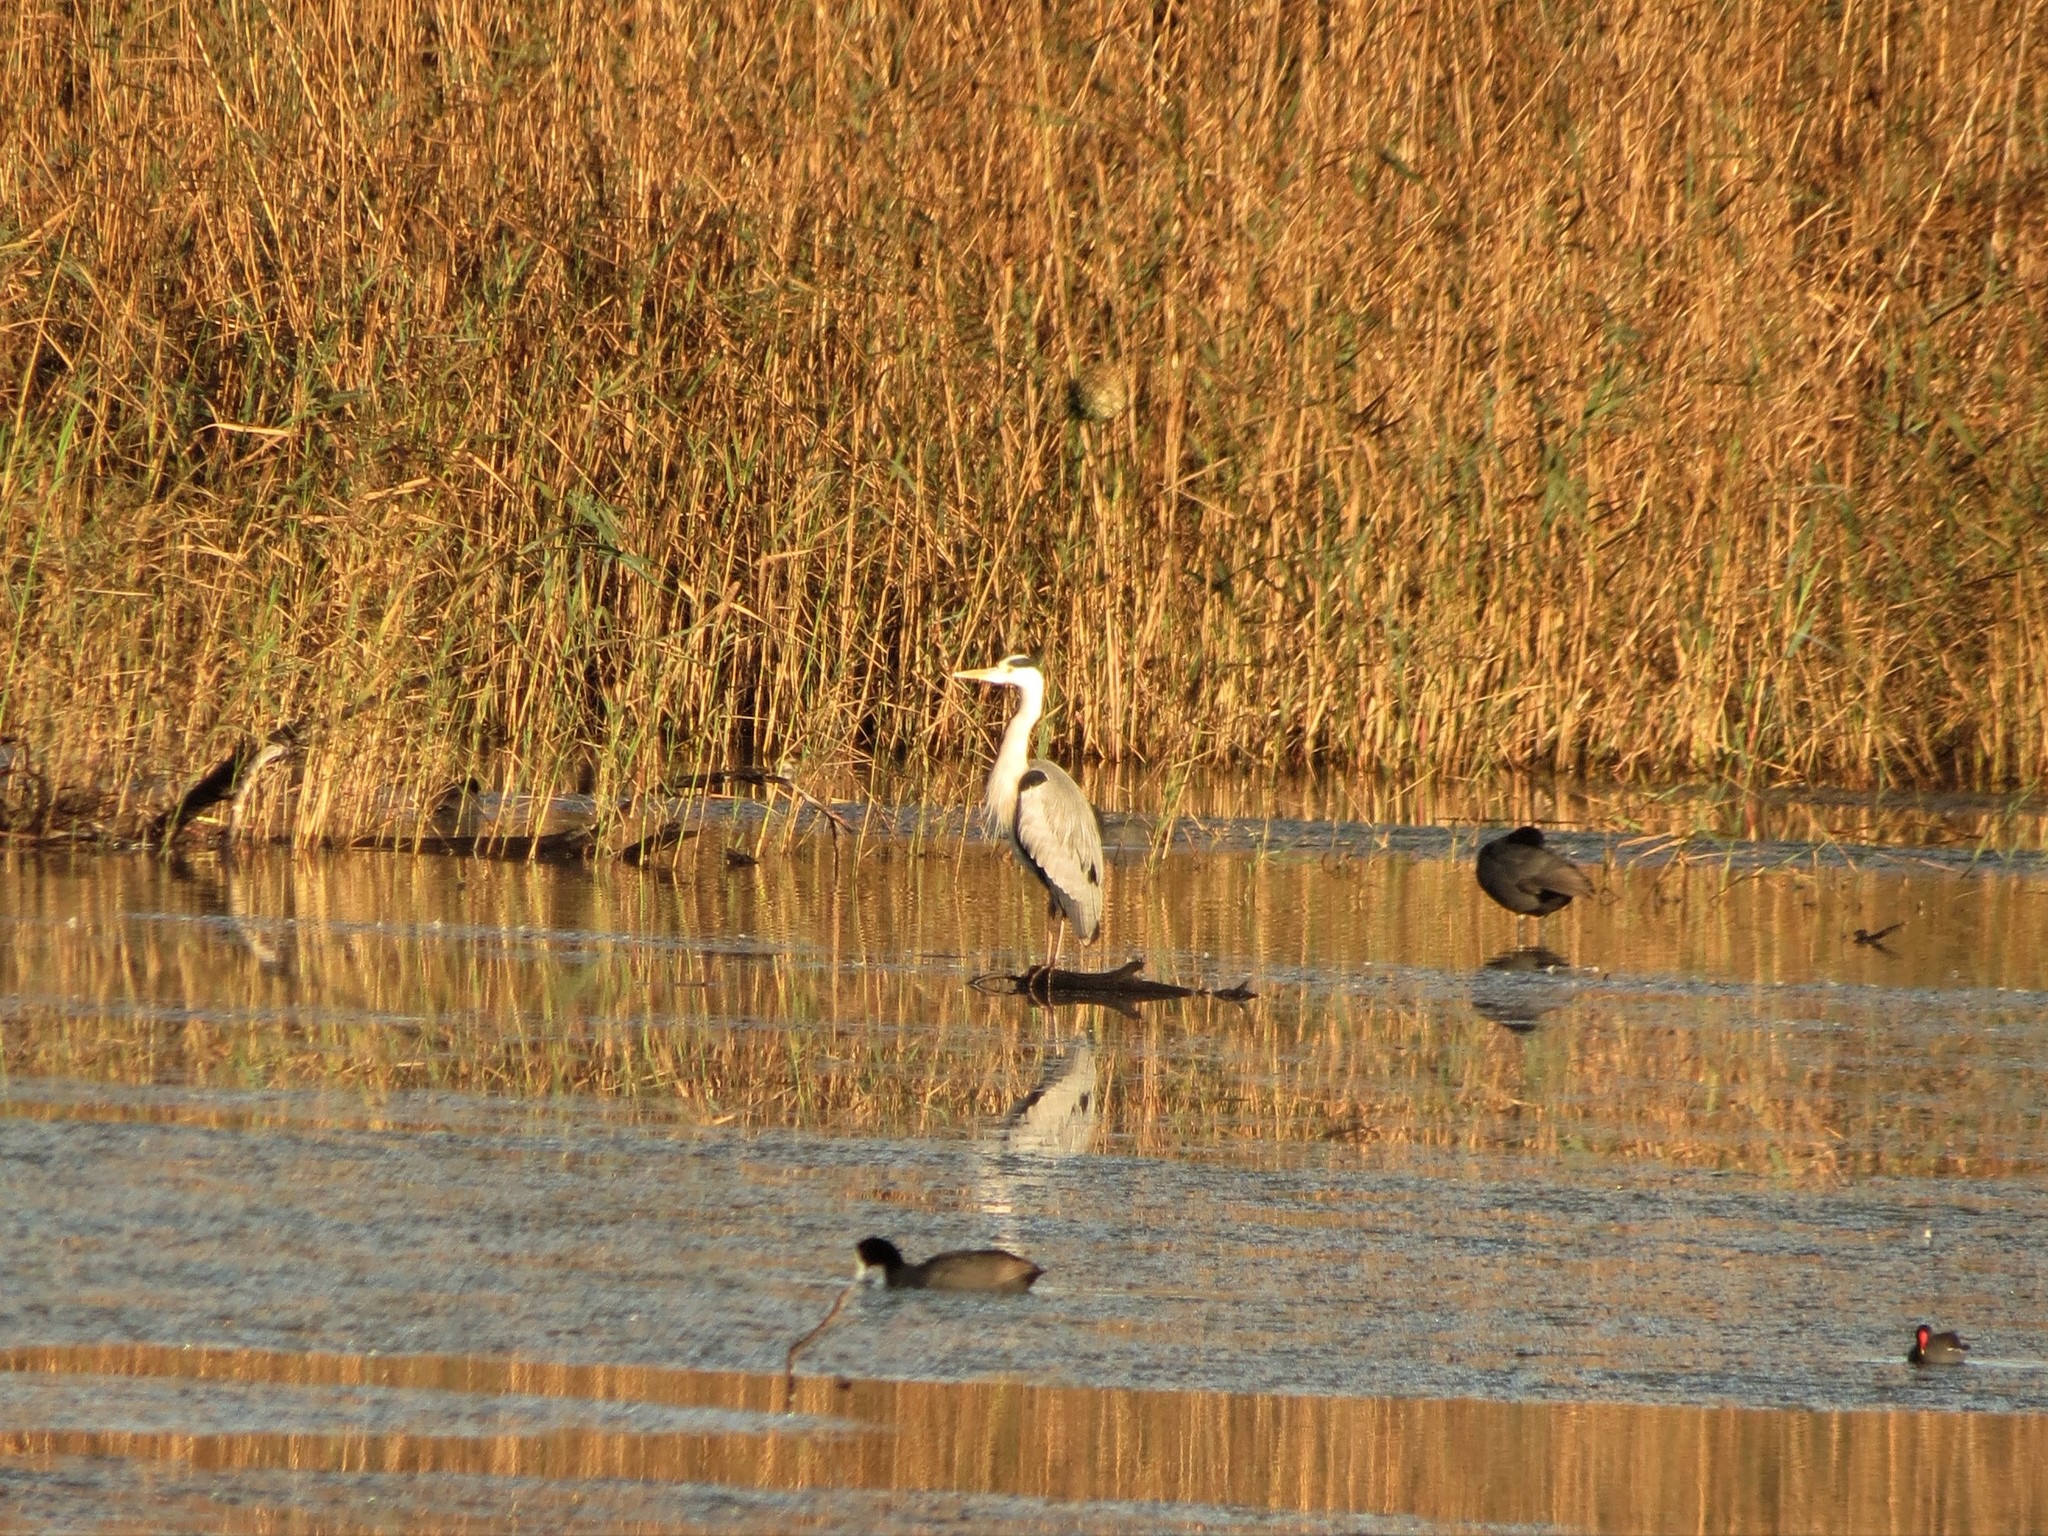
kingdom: Animalia
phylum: Chordata
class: Aves
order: Pelecaniformes
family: Ardeidae
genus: Ardea
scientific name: Ardea cinerea
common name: Grey heron
